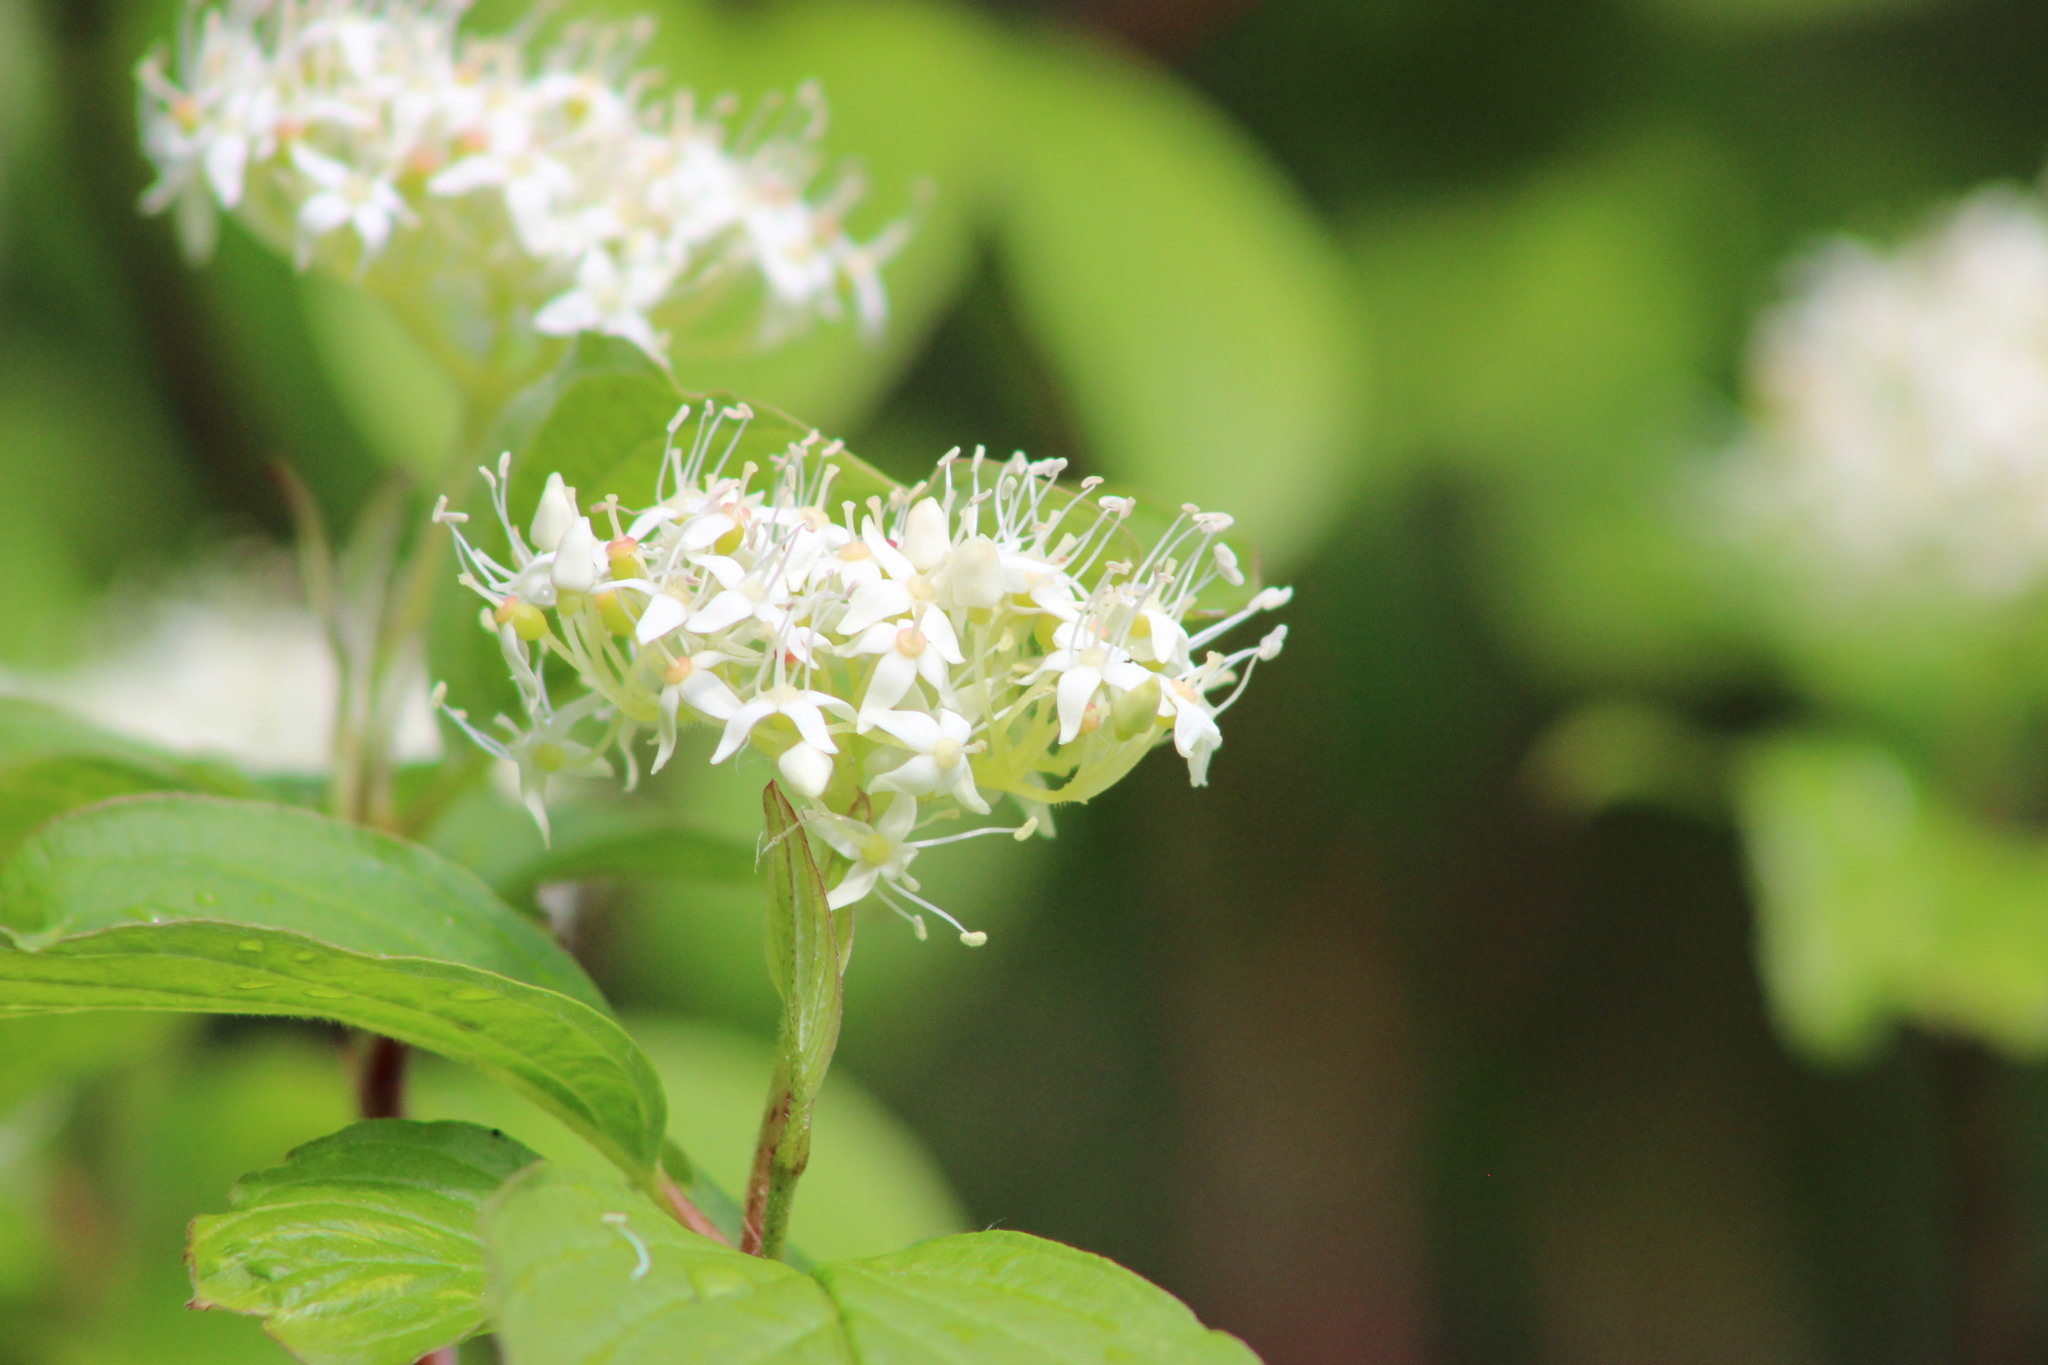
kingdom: Plantae
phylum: Tracheophyta
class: Magnoliopsida
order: Cornales
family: Cornaceae
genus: Cornus
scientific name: Cornus alba
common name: White dogwood
